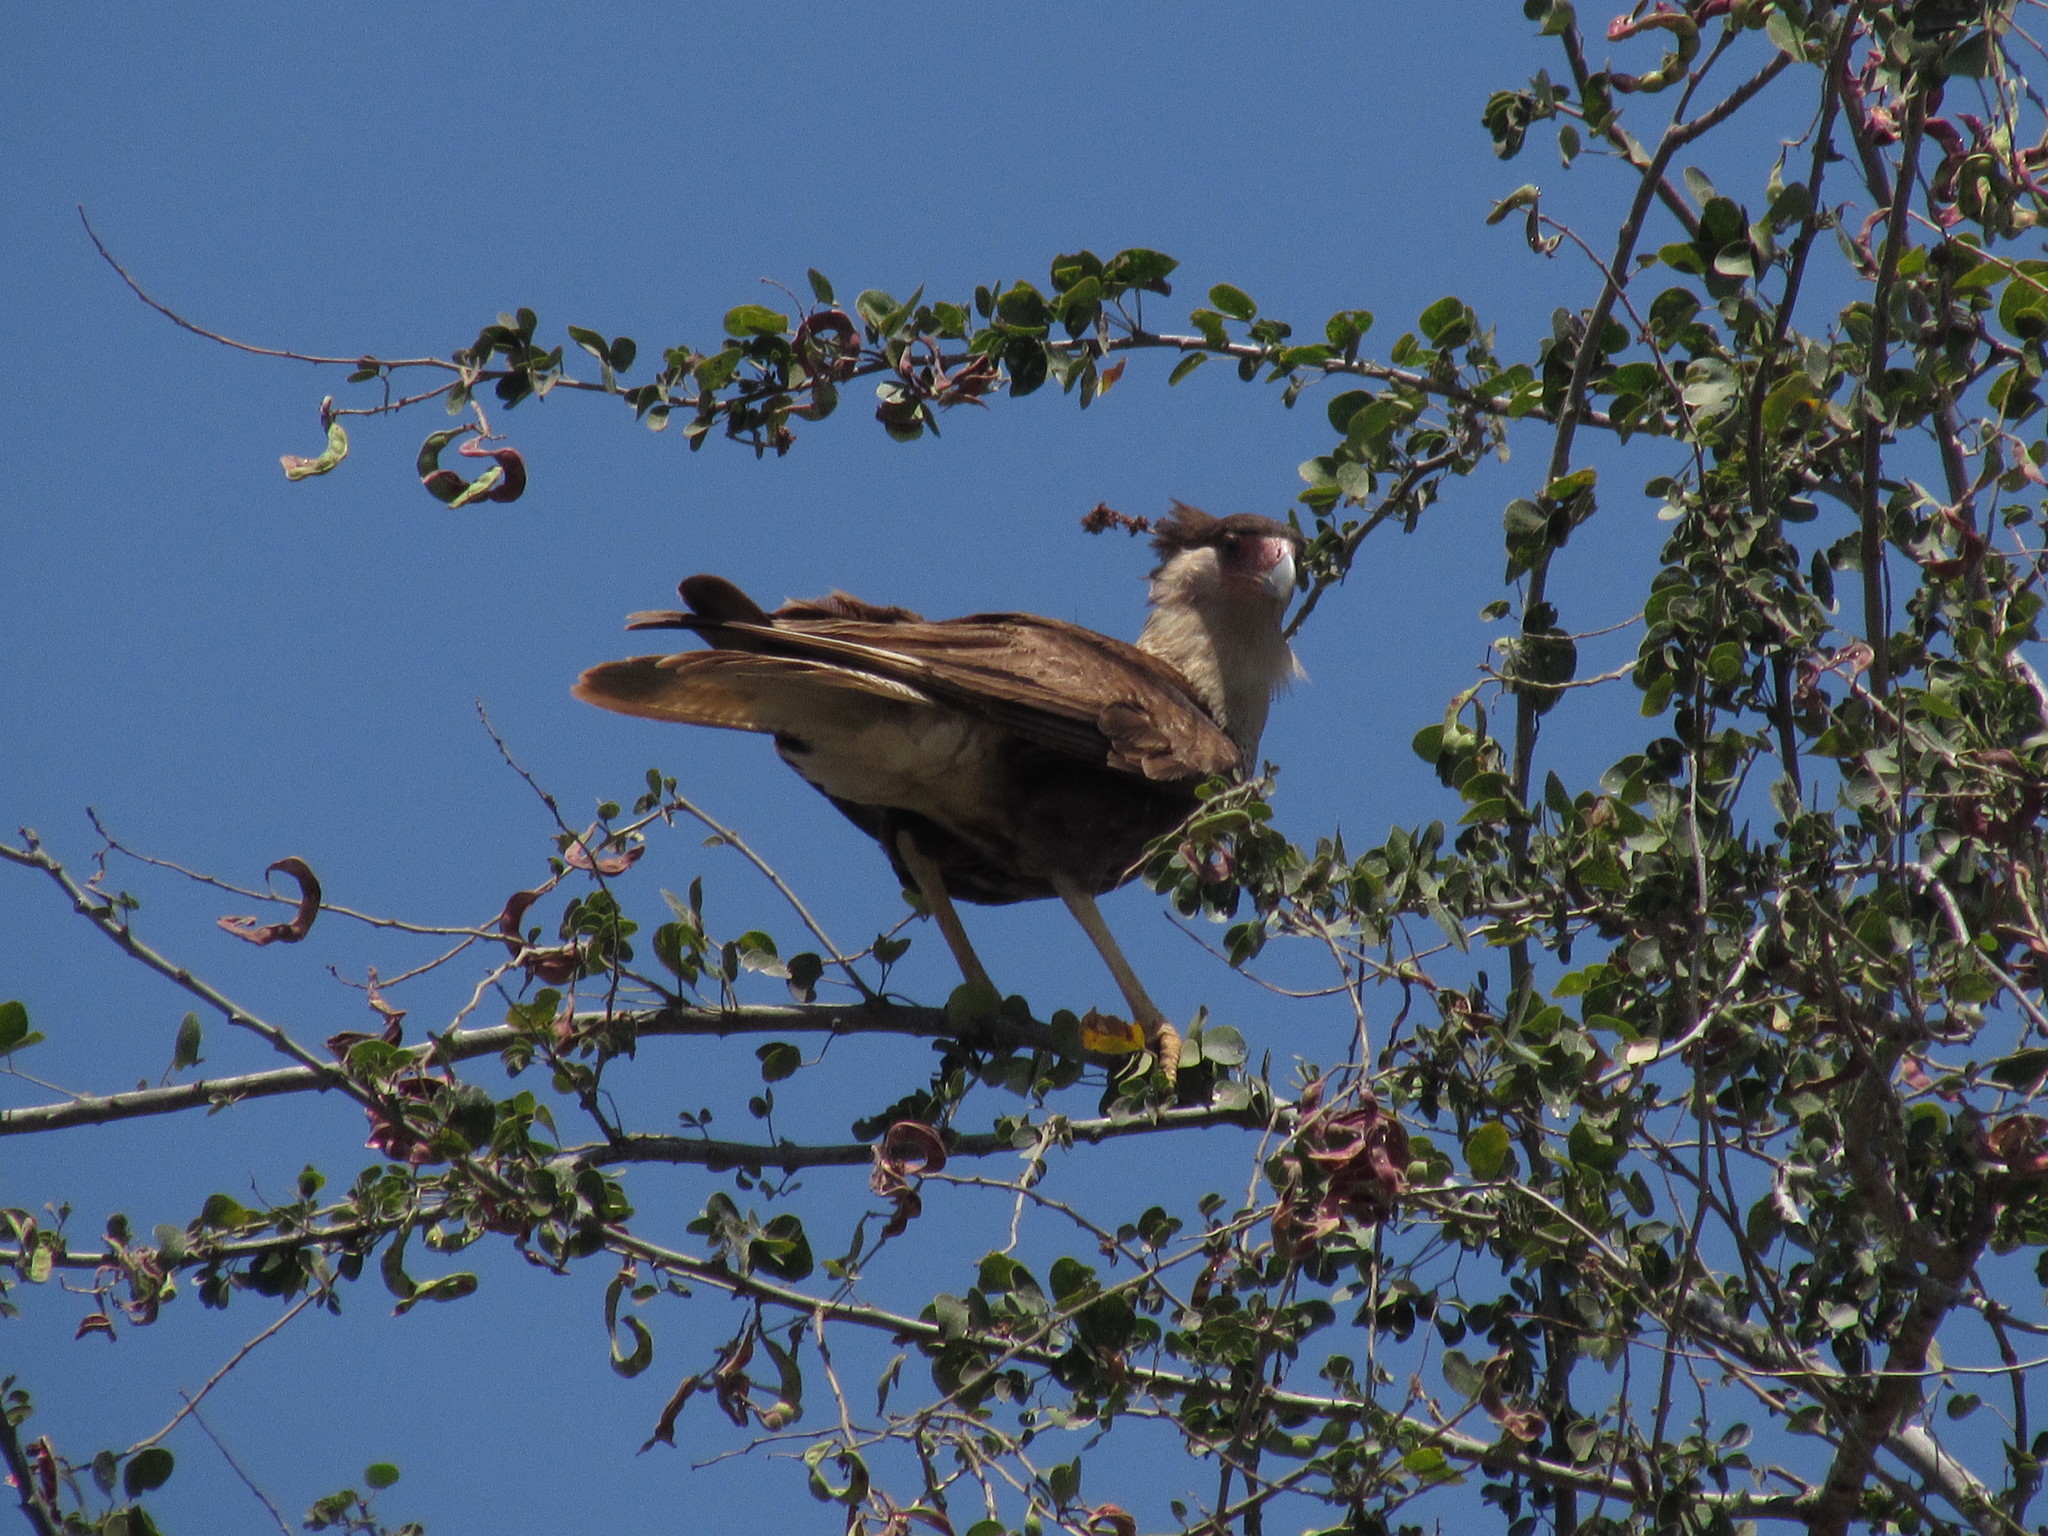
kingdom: Animalia
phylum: Chordata
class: Aves
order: Falconiformes
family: Falconidae
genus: Caracara
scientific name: Caracara plancus
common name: Southern caracara
